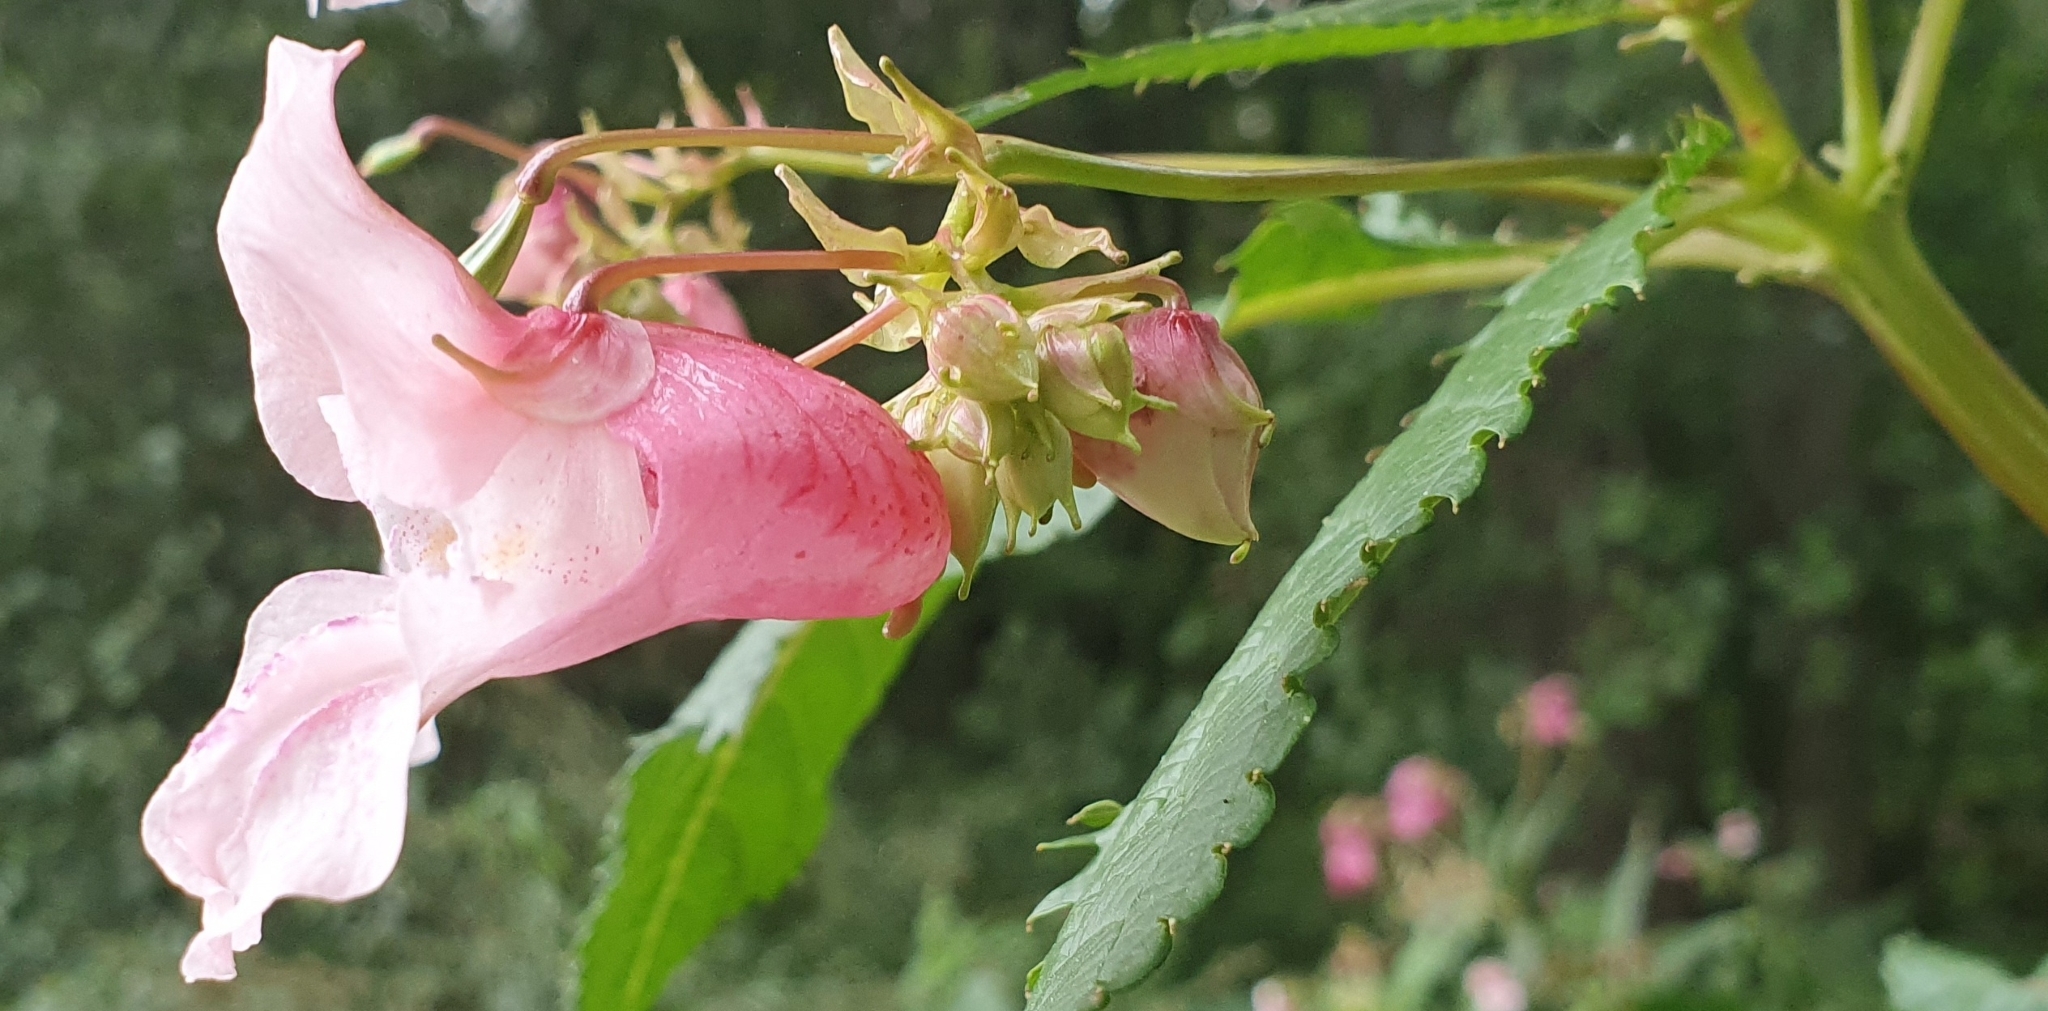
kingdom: Plantae
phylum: Tracheophyta
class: Magnoliopsida
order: Ericales
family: Balsaminaceae
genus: Impatiens
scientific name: Impatiens glandulifera
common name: Himalayan balsam
